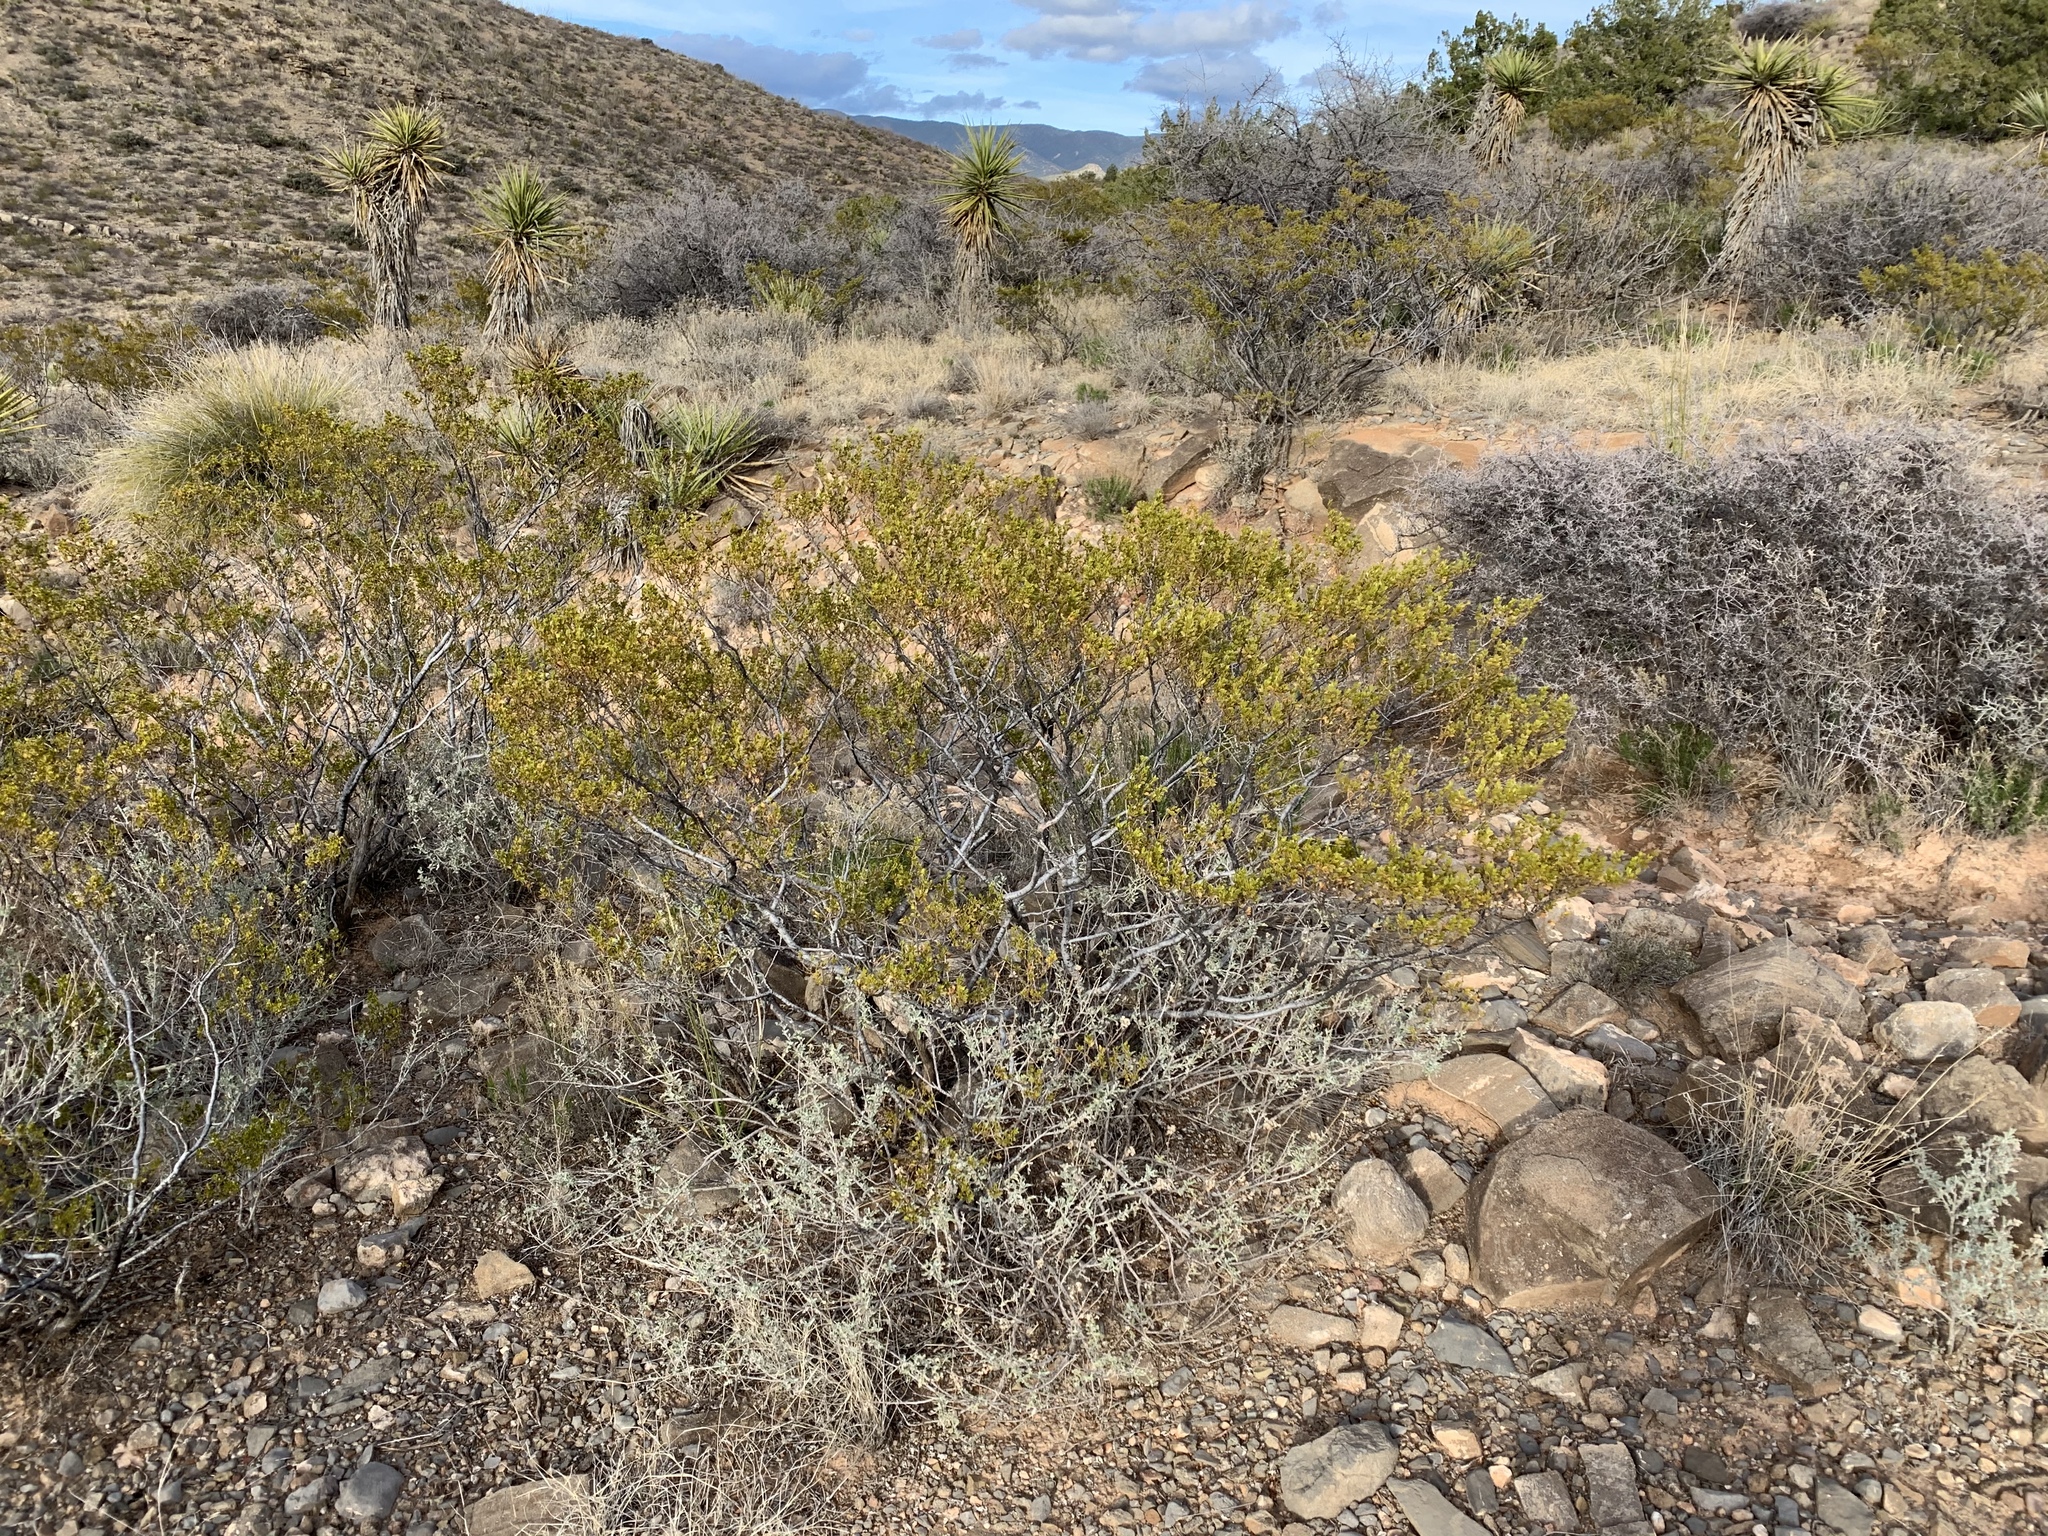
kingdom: Plantae
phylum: Tracheophyta
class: Magnoliopsida
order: Zygophyllales
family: Zygophyllaceae
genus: Larrea
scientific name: Larrea tridentata
